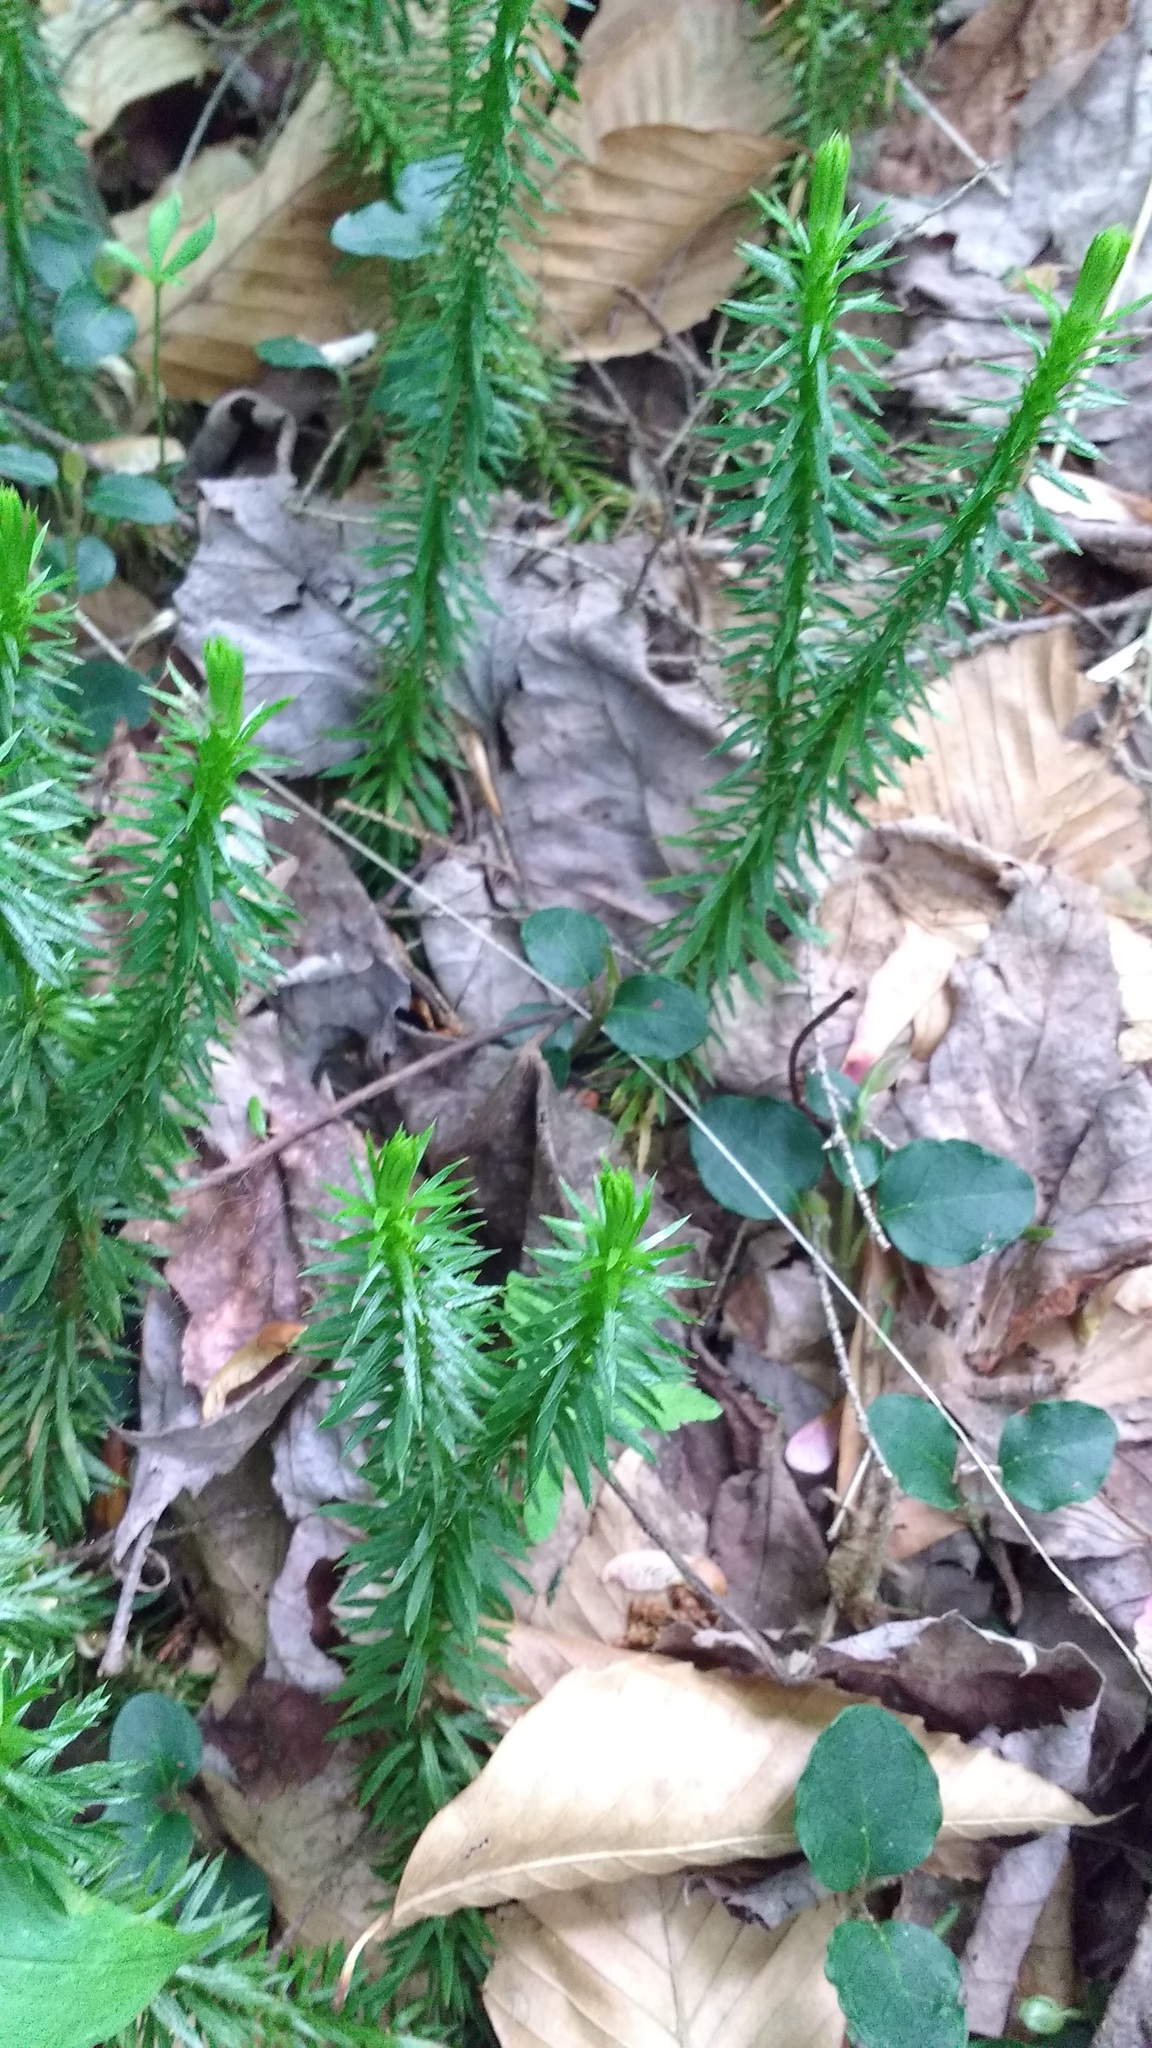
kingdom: Plantae
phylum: Tracheophyta
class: Lycopodiopsida
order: Lycopodiales
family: Lycopodiaceae
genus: Huperzia
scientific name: Huperzia lucidula
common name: Shining clubmoss
